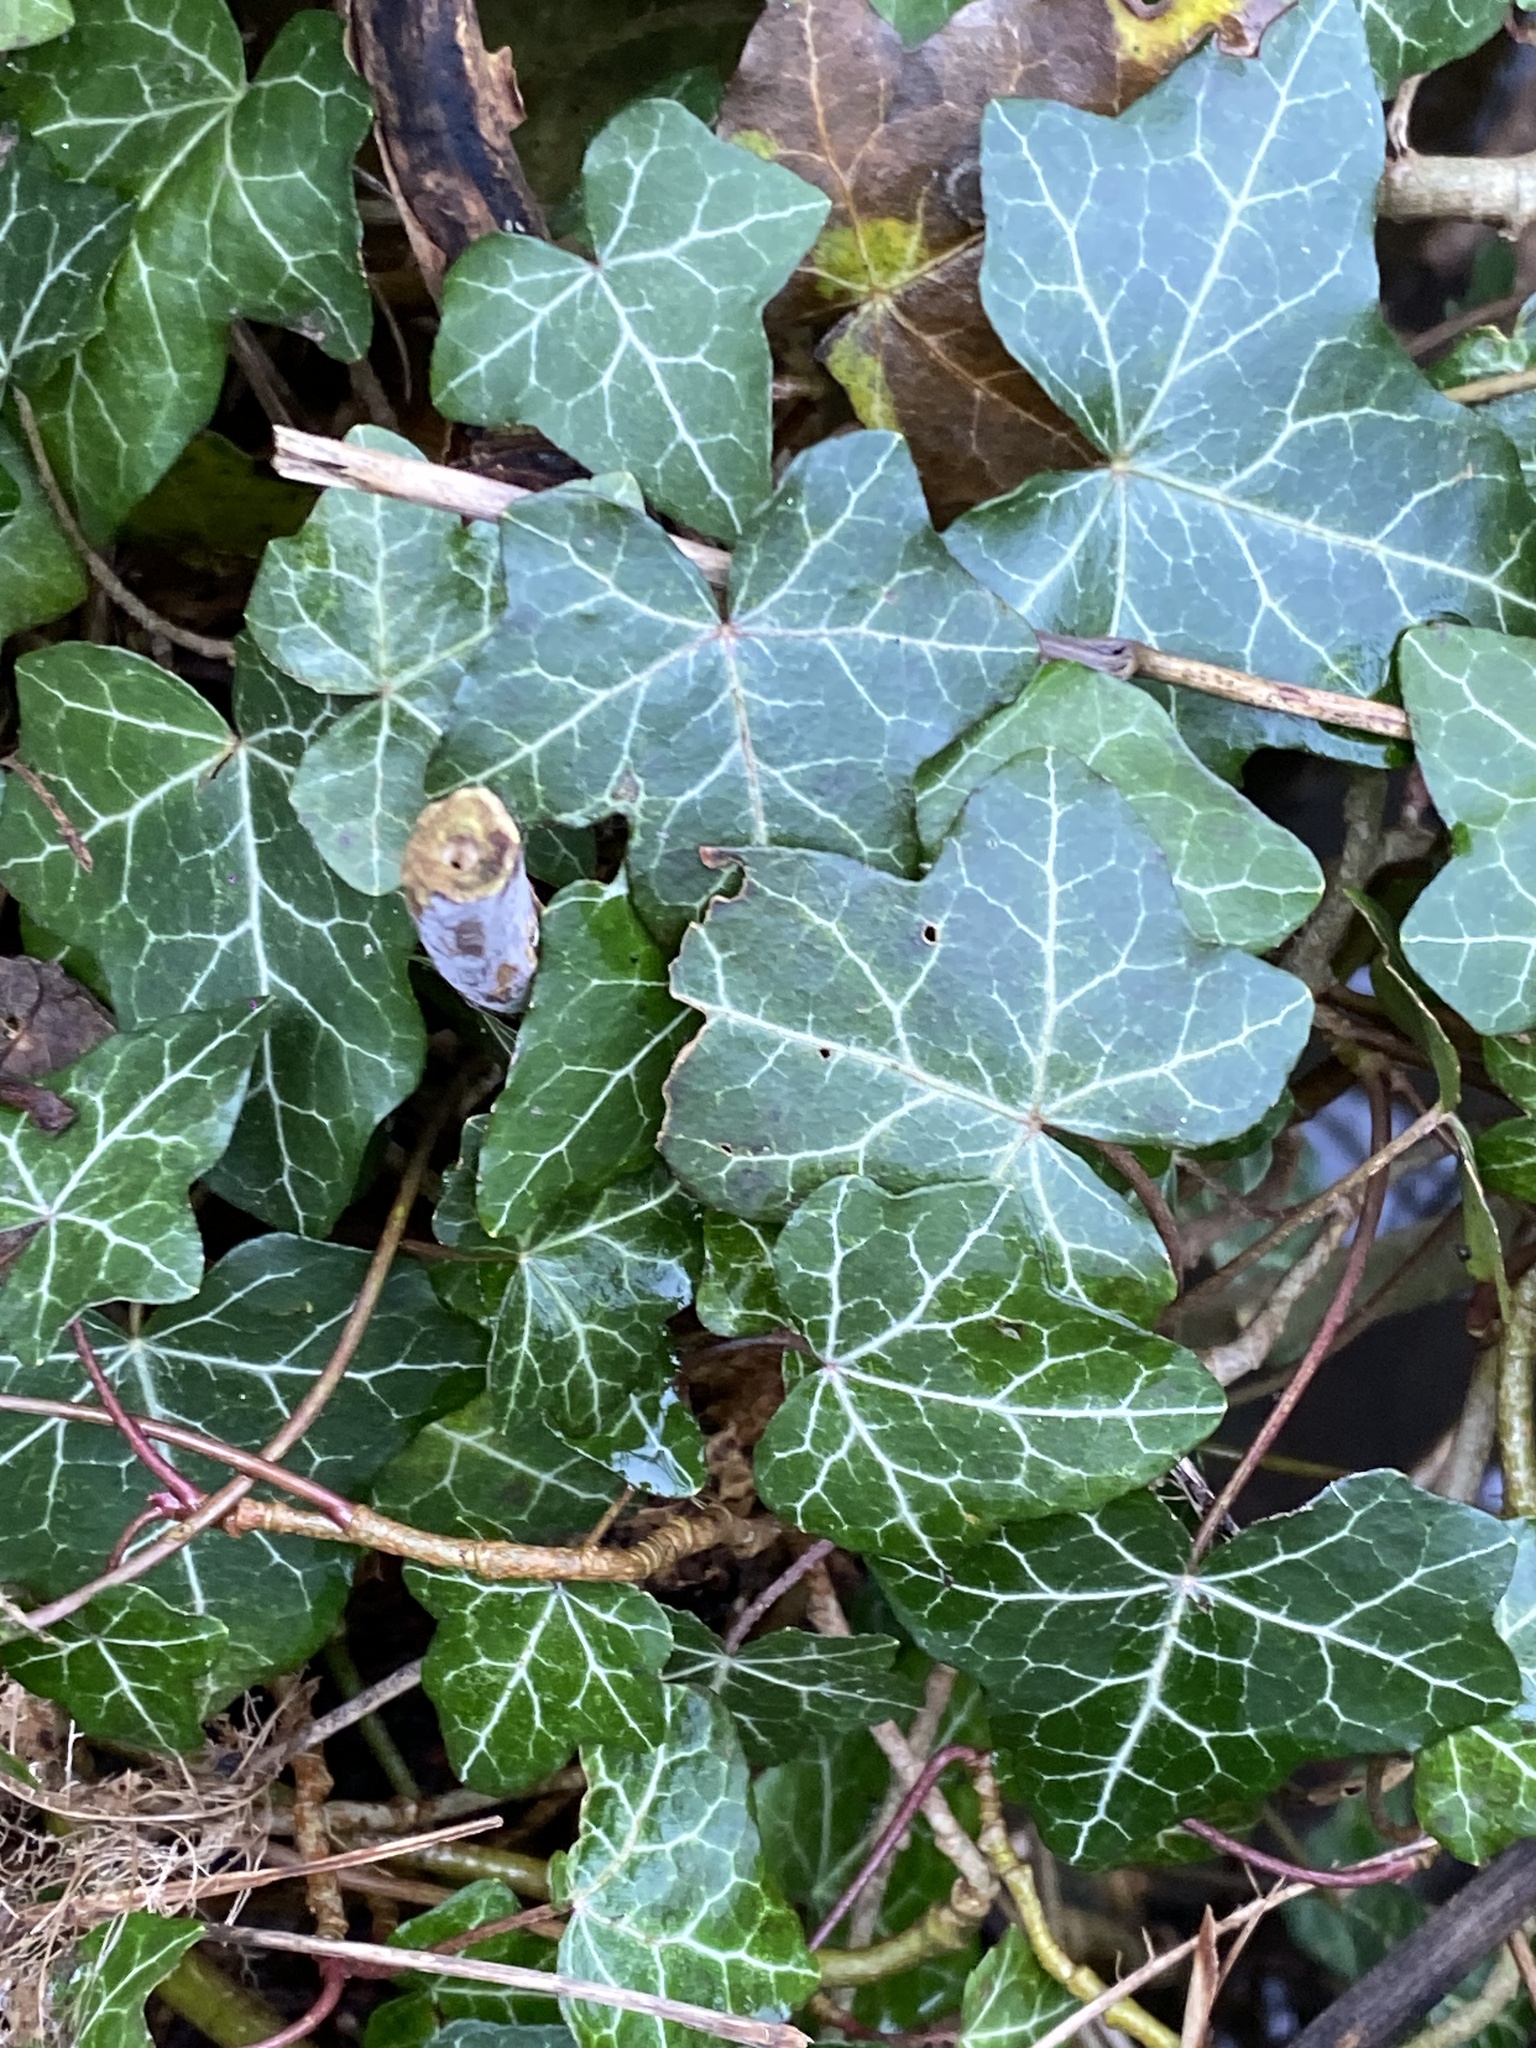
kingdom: Plantae
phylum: Tracheophyta
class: Magnoliopsida
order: Apiales
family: Araliaceae
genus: Hedera
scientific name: Hedera helix
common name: Ivy
